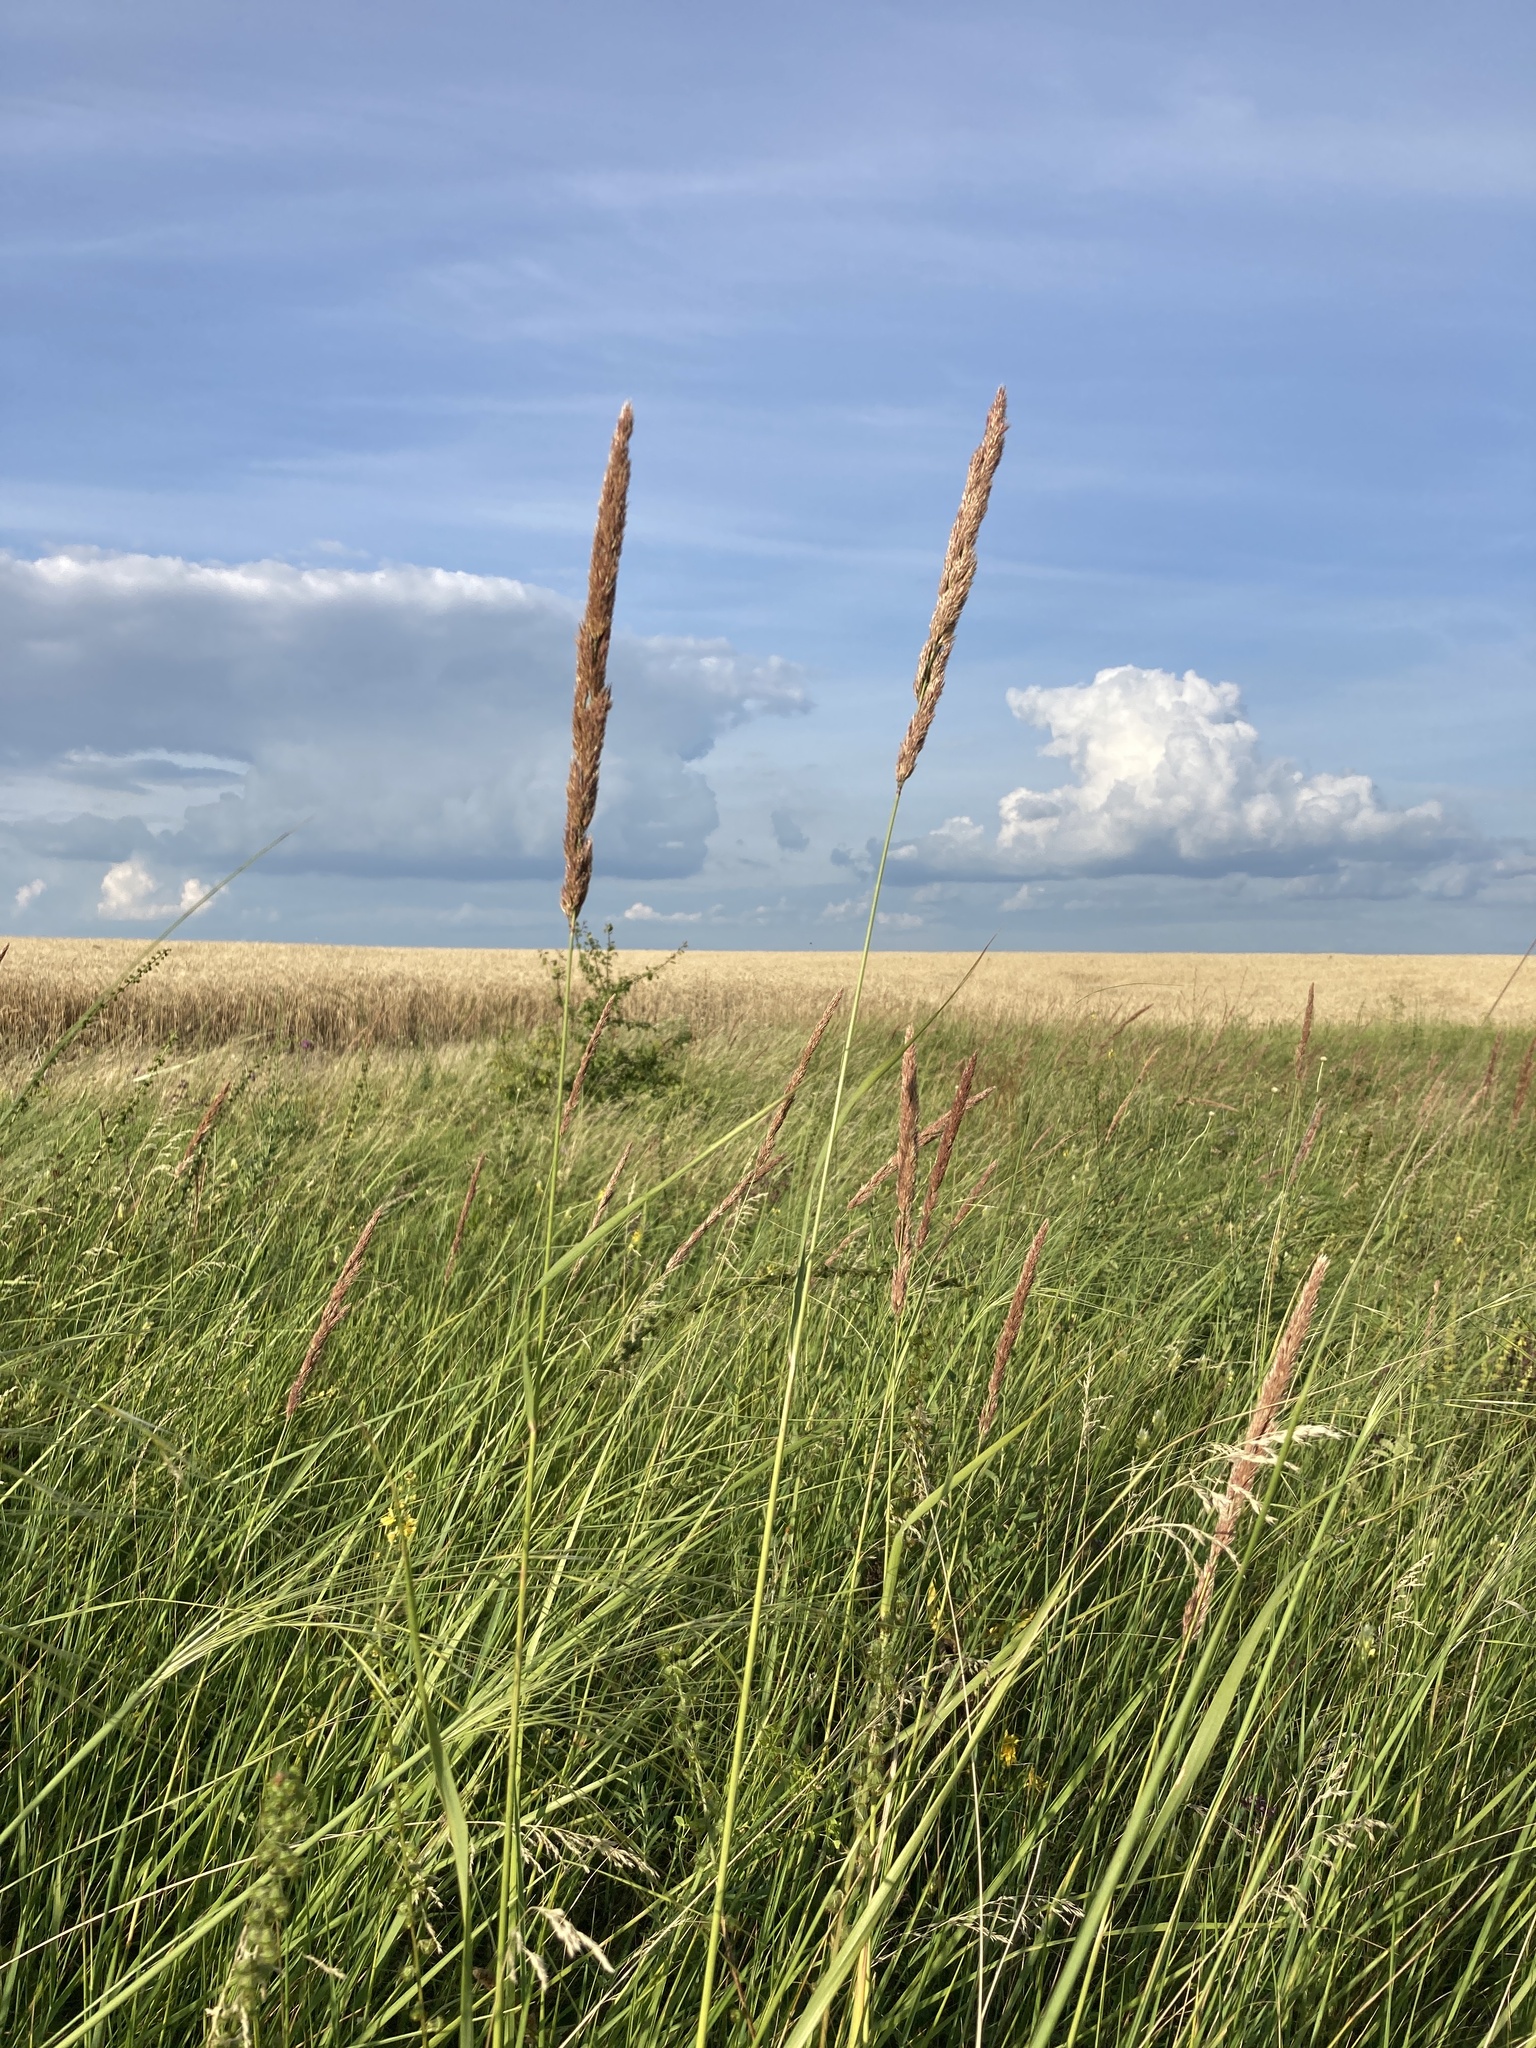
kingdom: Plantae
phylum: Tracheophyta
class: Liliopsida
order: Poales
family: Poaceae
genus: Phalaris
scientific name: Phalaris arundinacea
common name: Reed canary-grass
